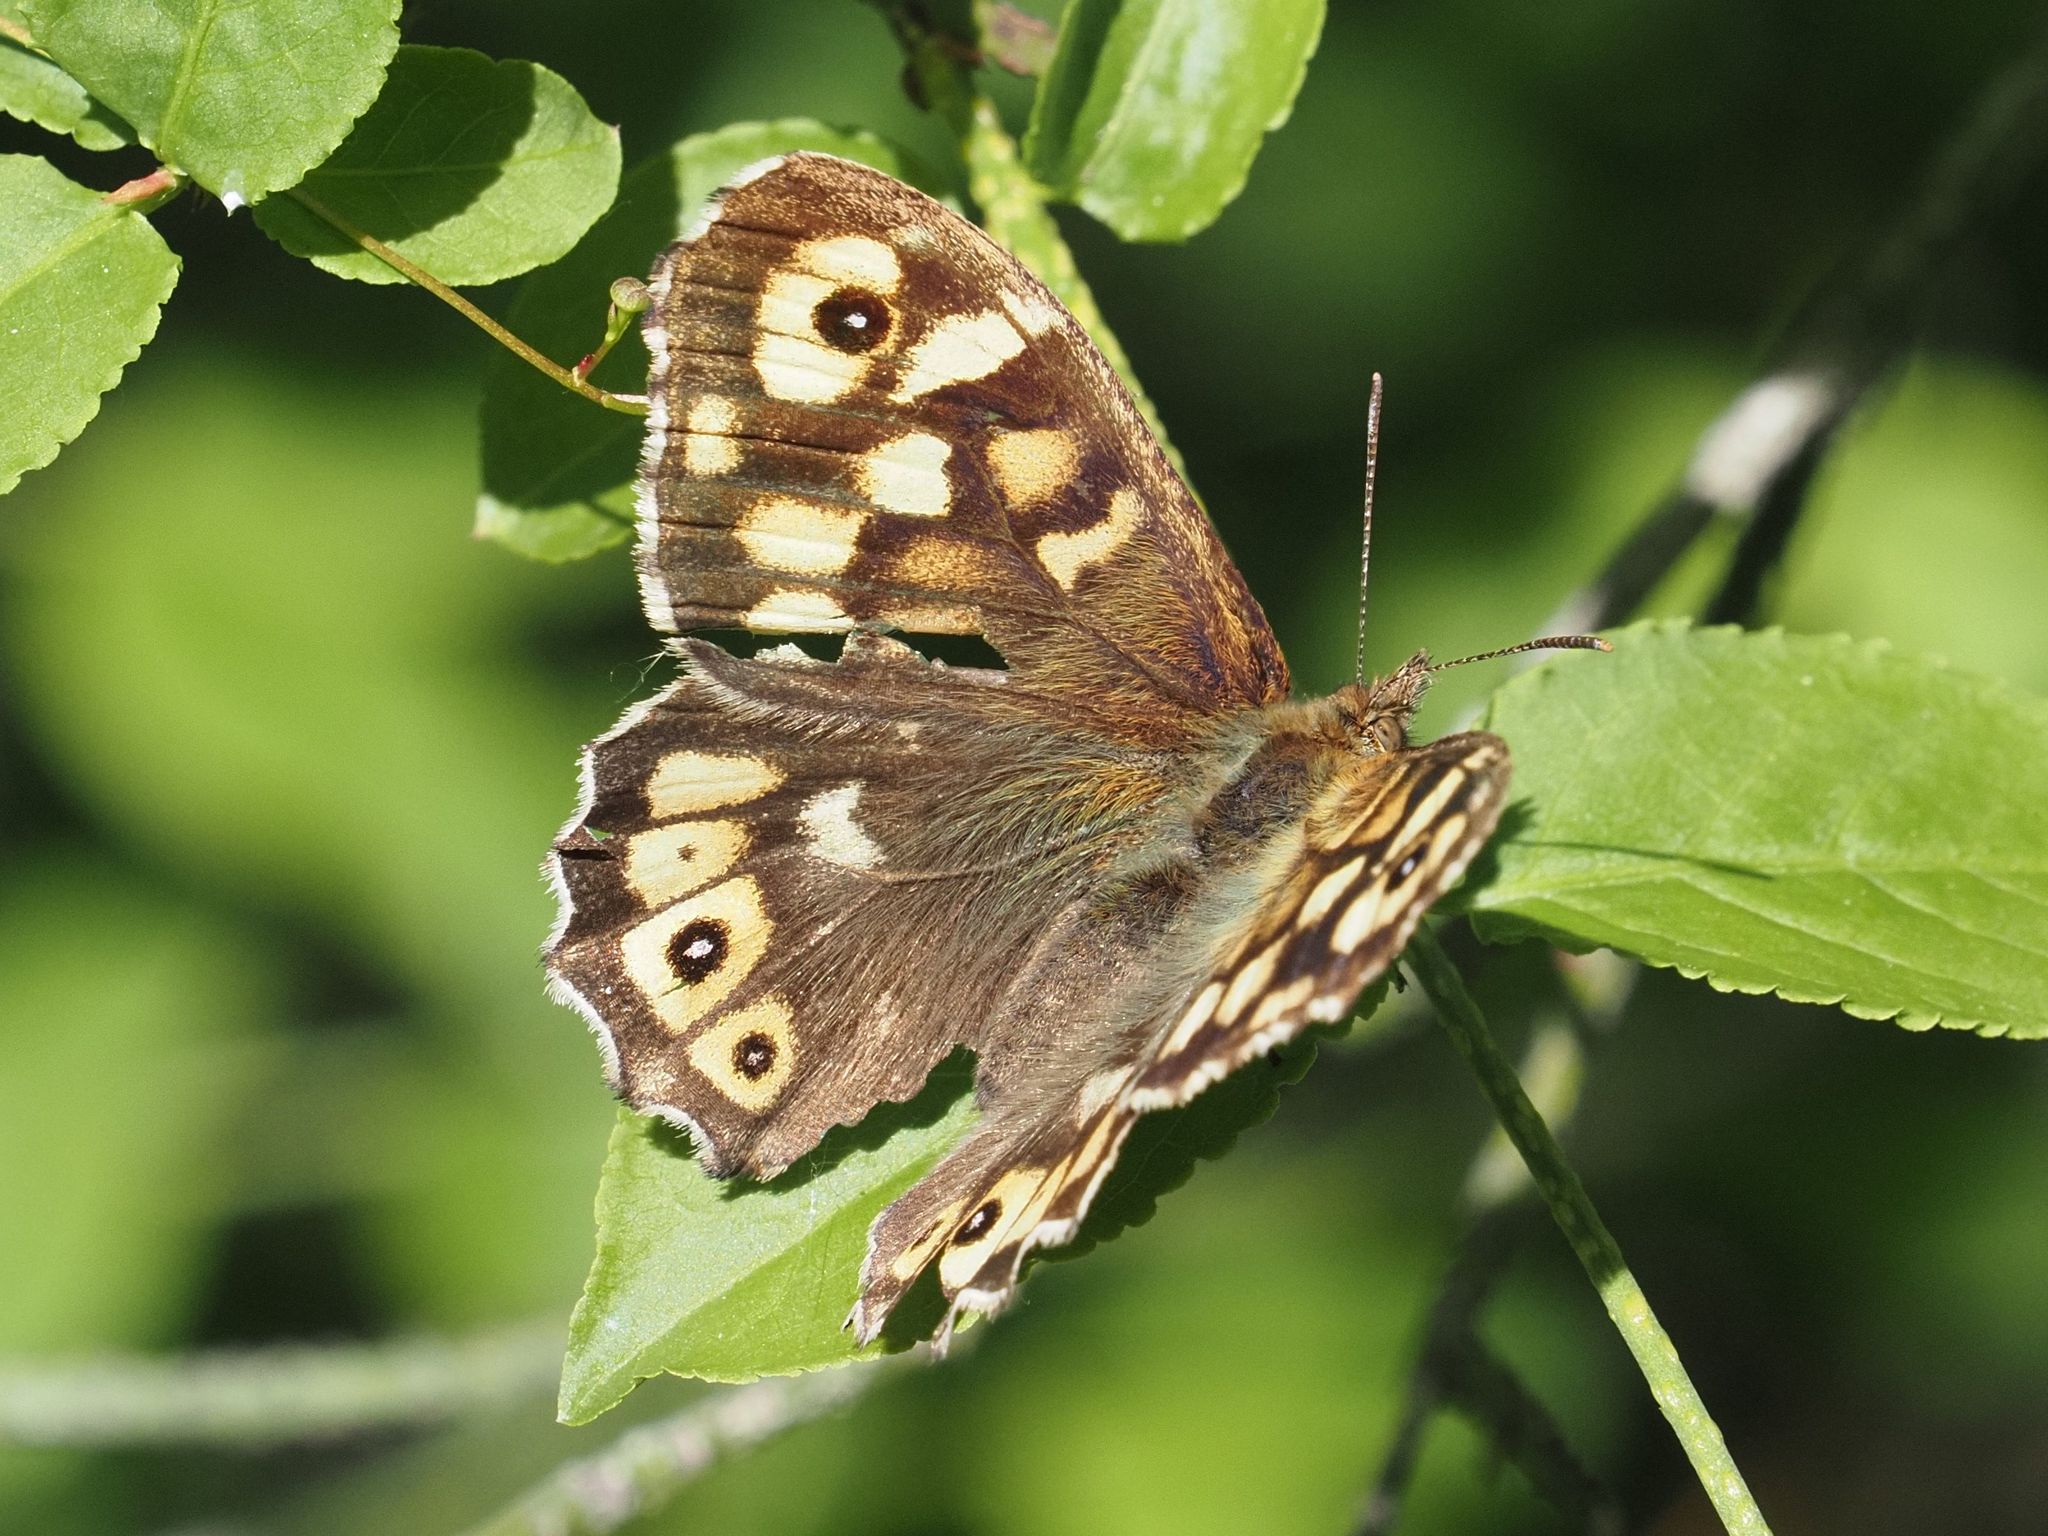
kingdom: Animalia
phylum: Arthropoda
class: Insecta
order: Lepidoptera
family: Nymphalidae
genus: Pararge
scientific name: Pararge aegeria
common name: Speckled wood
